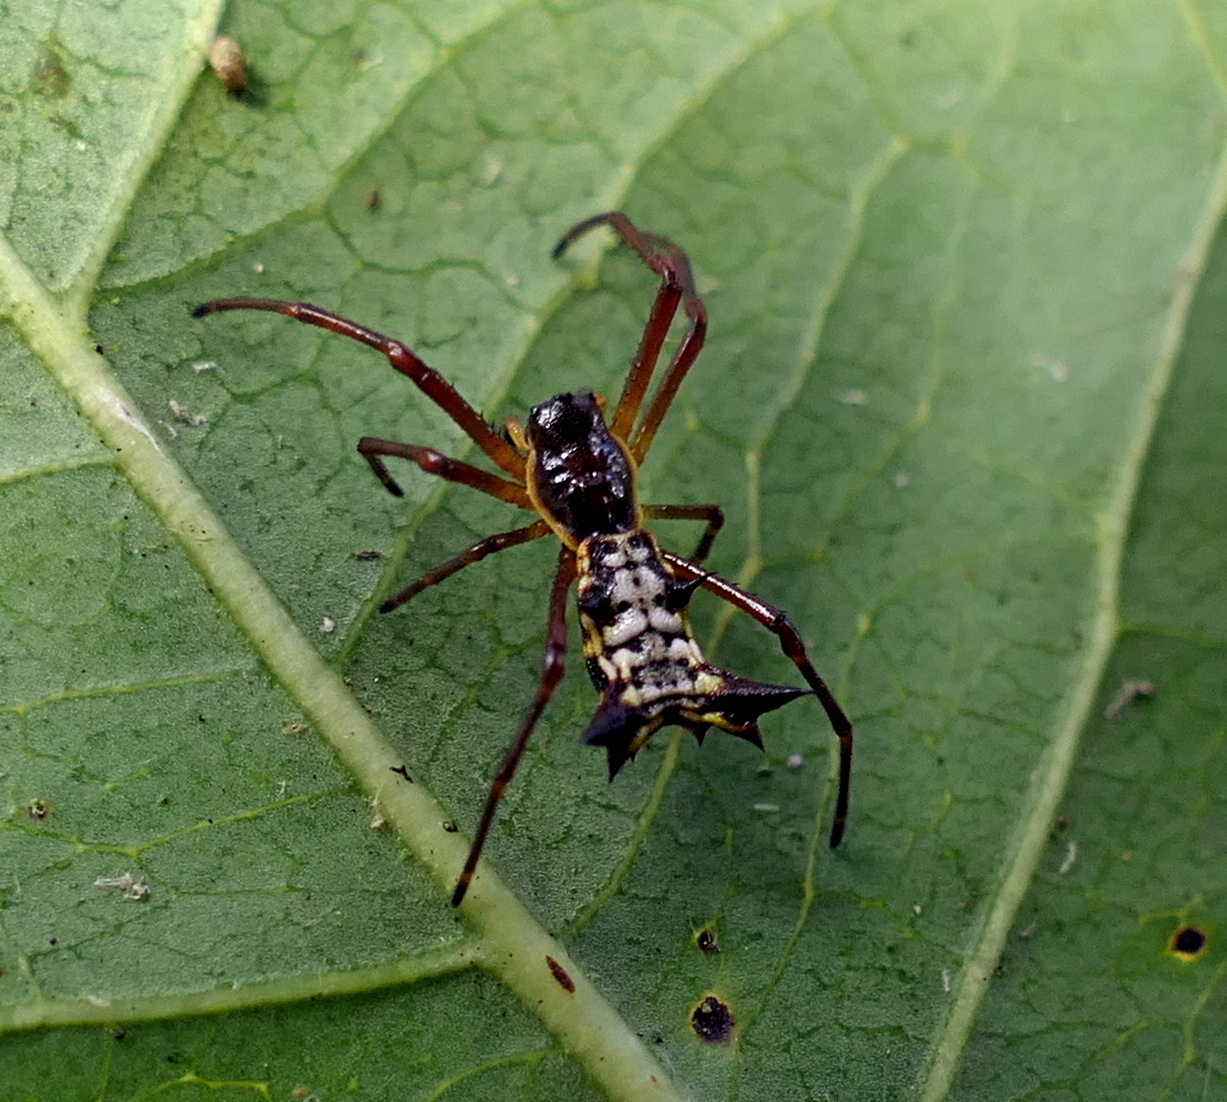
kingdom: Animalia
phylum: Arthropoda
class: Arachnida
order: Araneae
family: Araneidae
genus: Micrathena
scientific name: Micrathena fissispina
